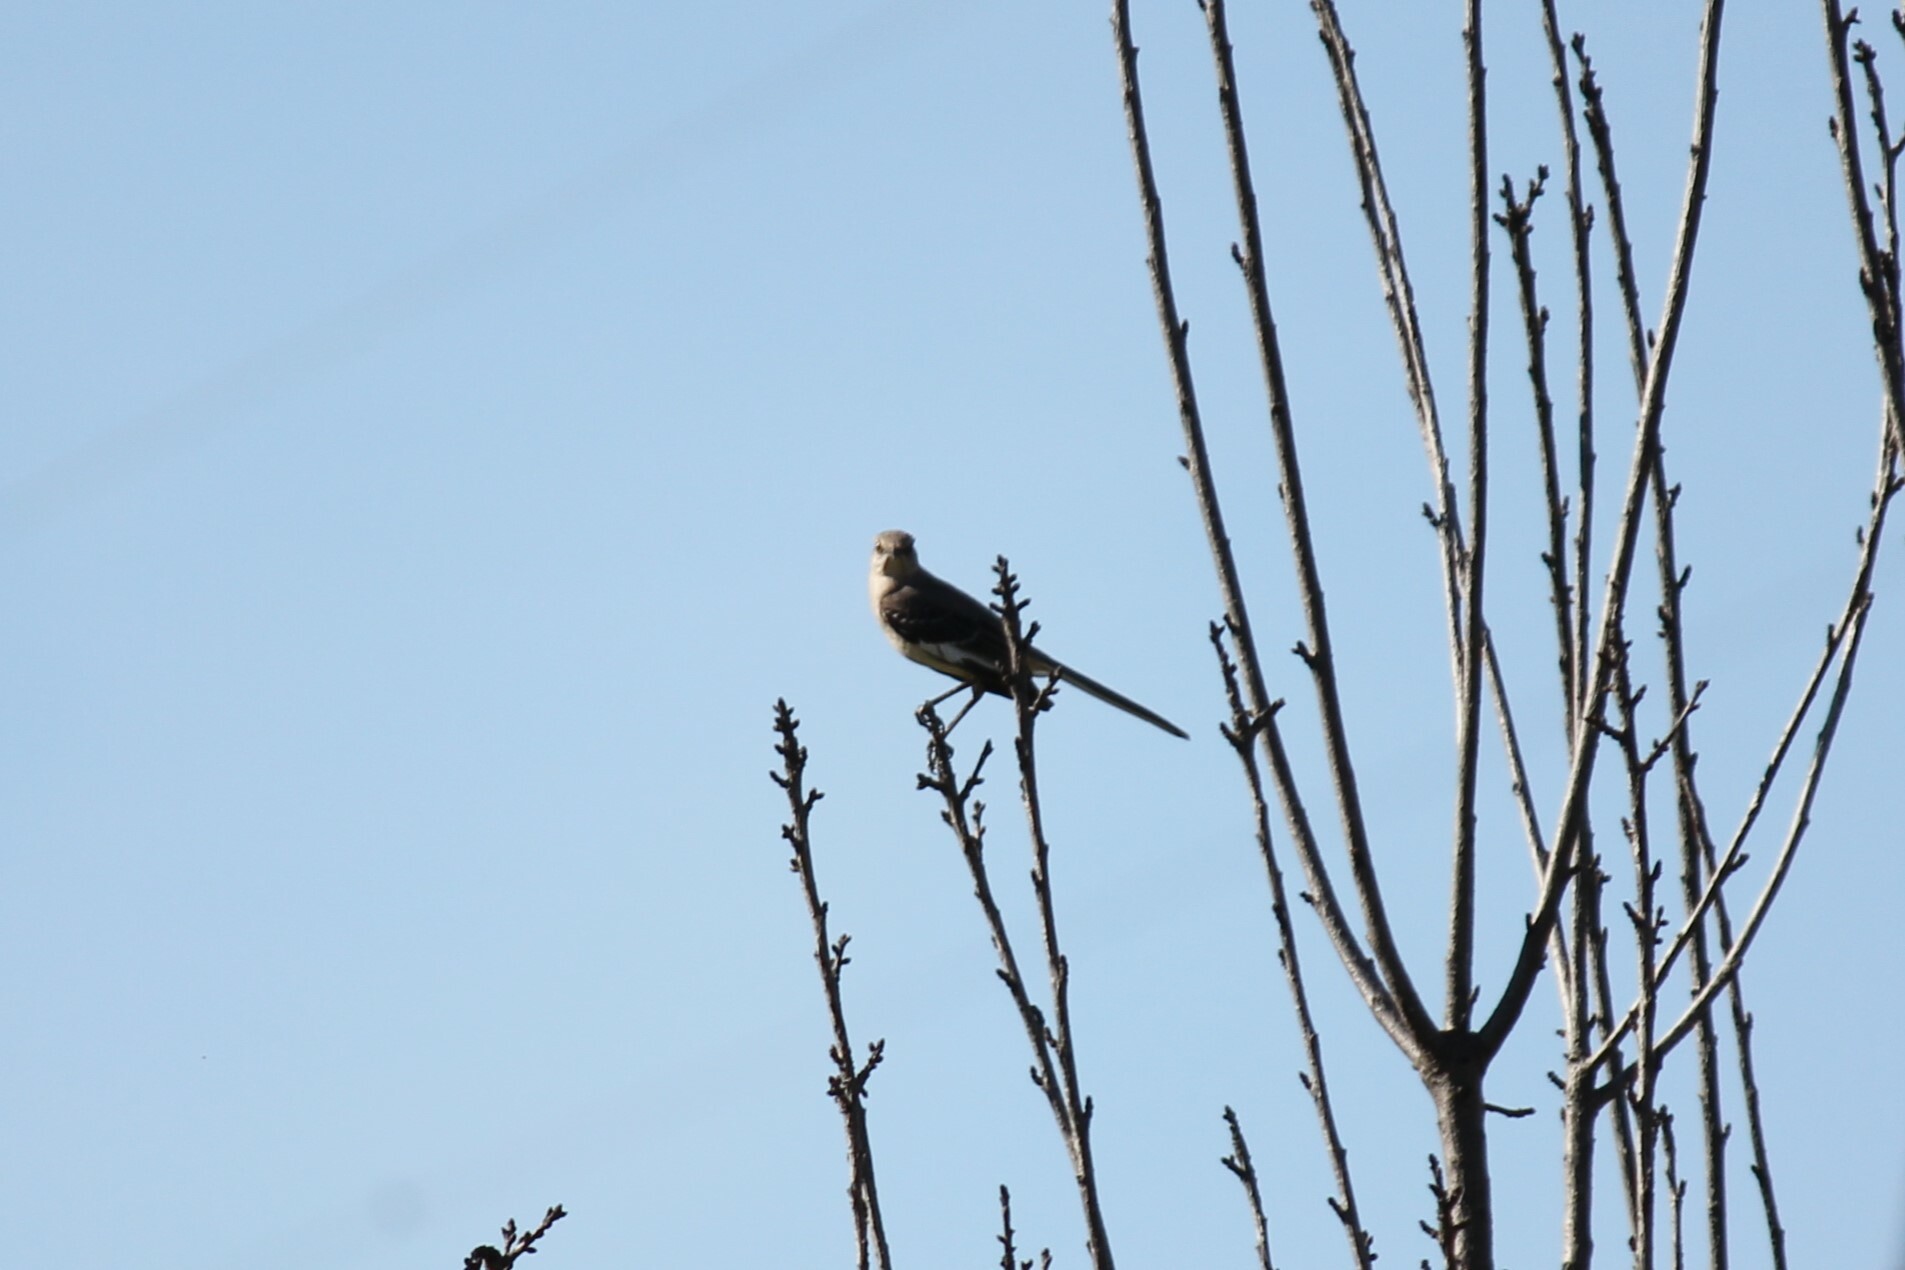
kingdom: Animalia
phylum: Chordata
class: Aves
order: Passeriformes
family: Mimidae
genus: Mimus
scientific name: Mimus polyglottos
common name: Northern mockingbird
